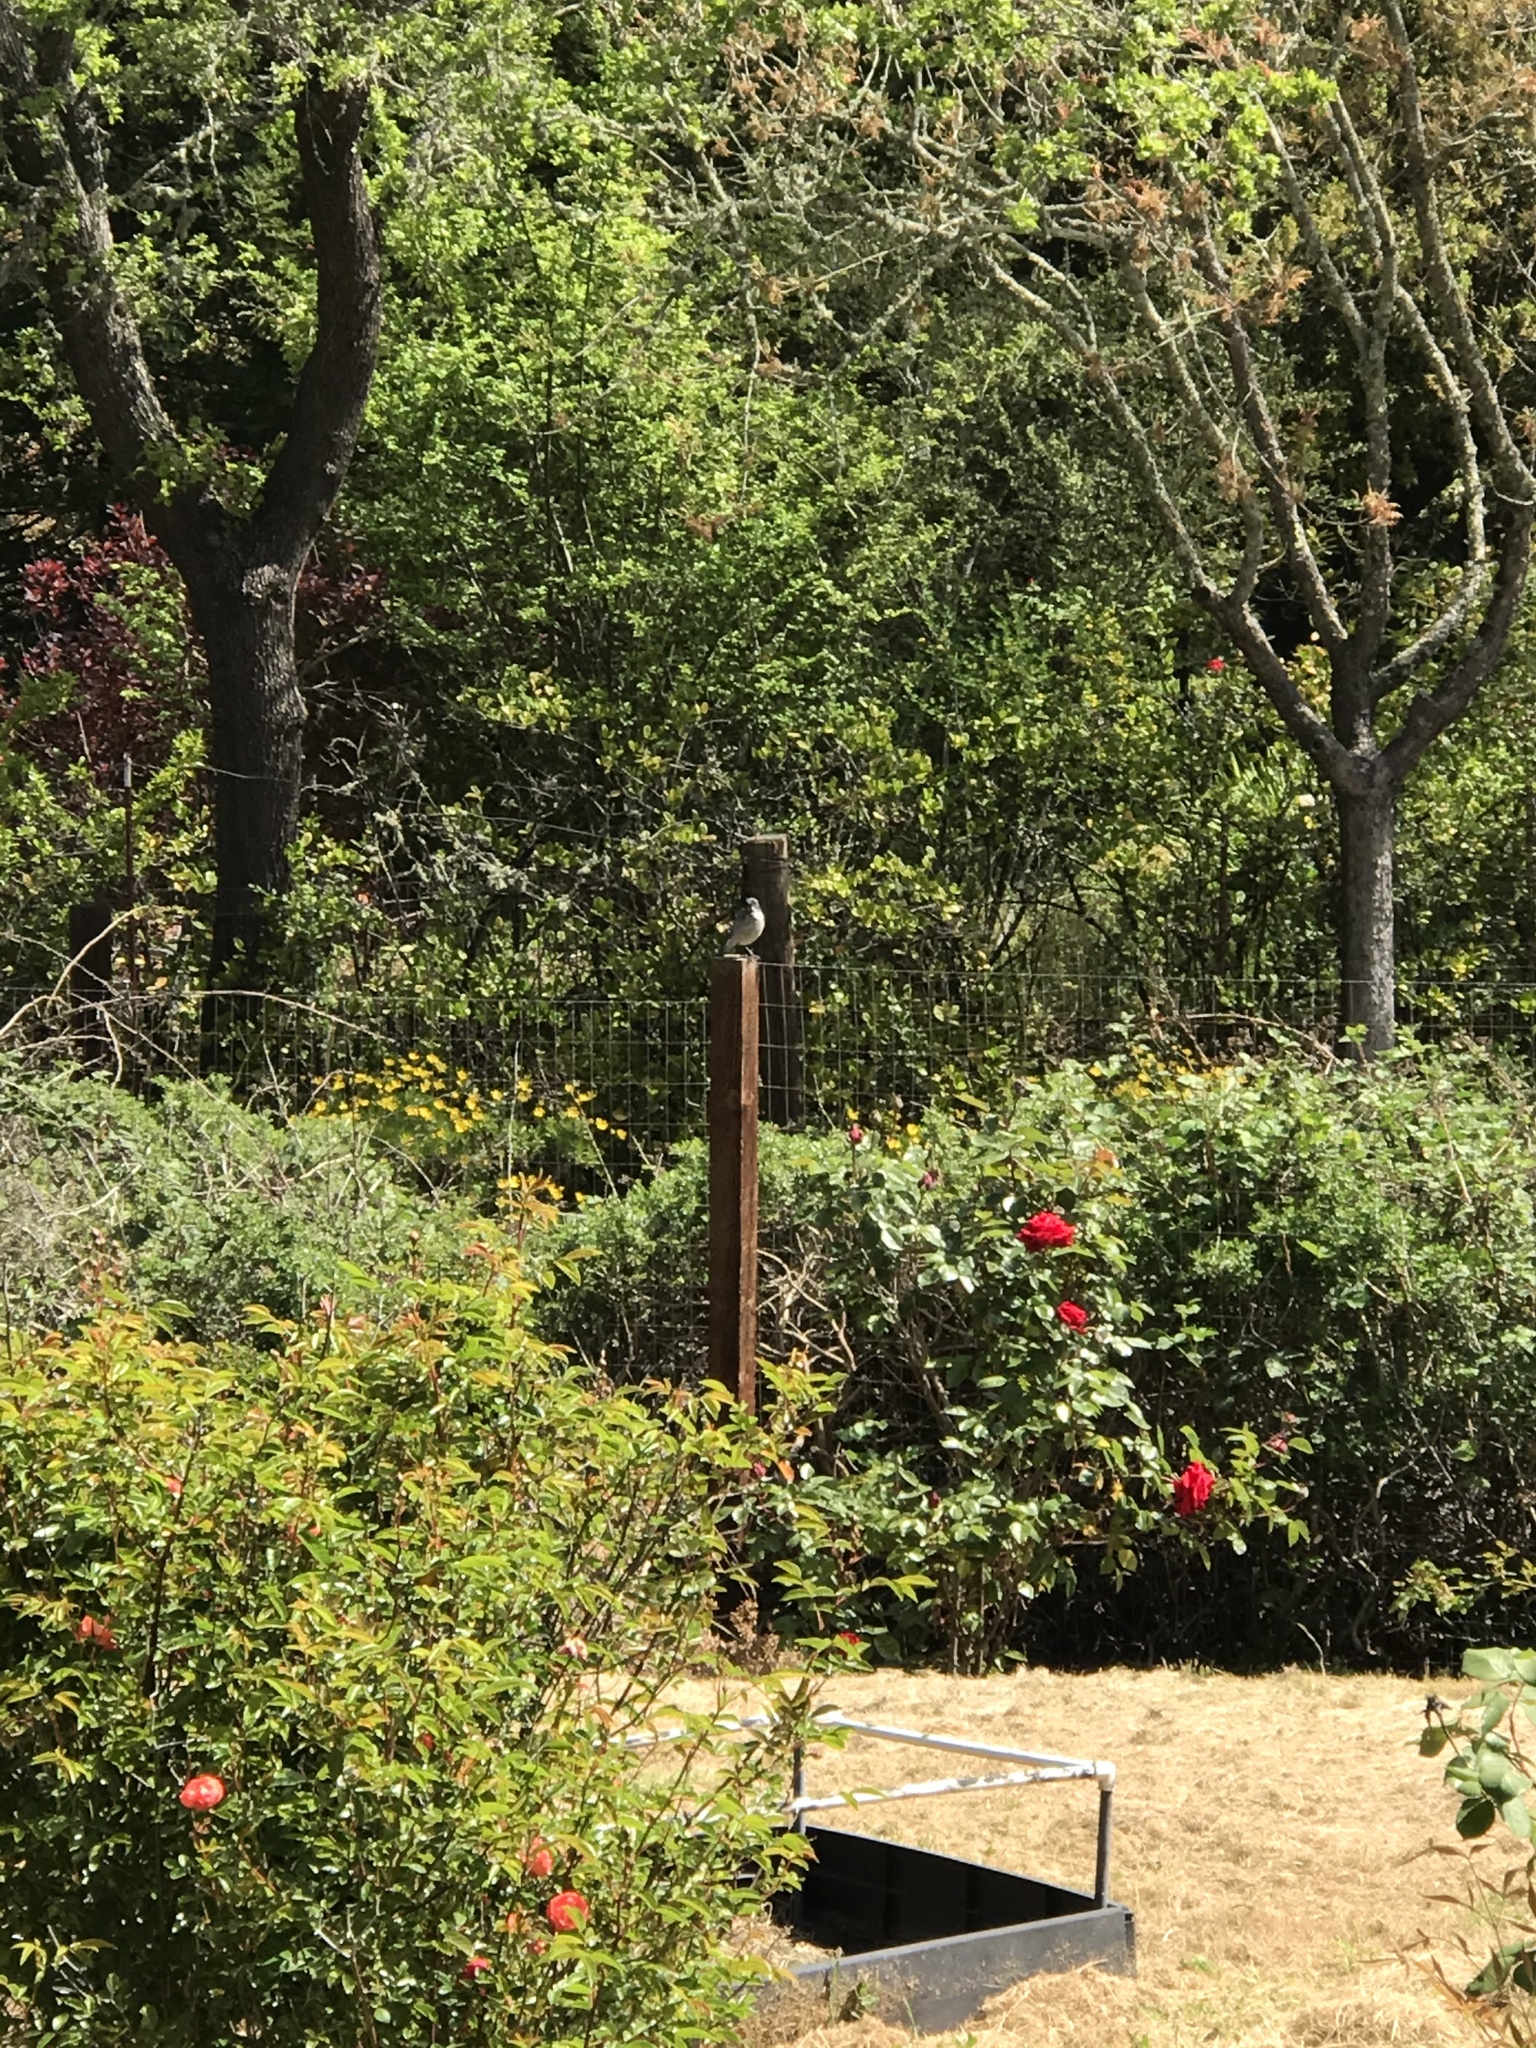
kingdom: Animalia
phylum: Chordata
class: Aves
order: Passeriformes
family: Corvidae
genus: Aphelocoma
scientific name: Aphelocoma californica
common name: California scrub-jay
